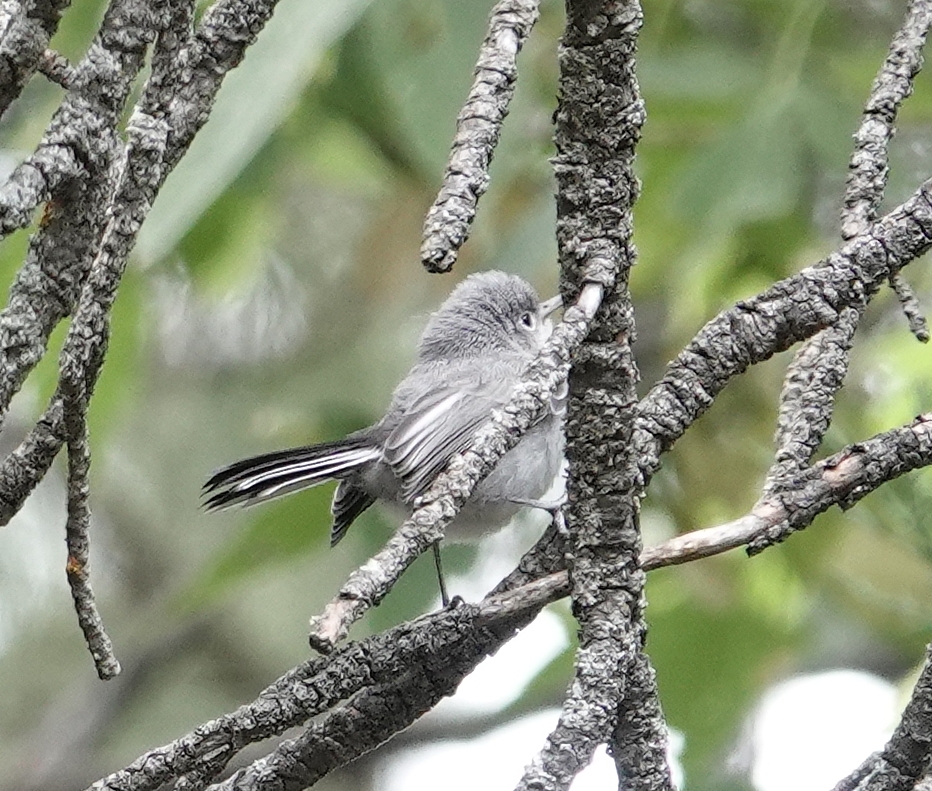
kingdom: Animalia
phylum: Chordata
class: Aves
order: Passeriformes
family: Polioptilidae
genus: Polioptila
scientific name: Polioptila caerulea
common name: Blue-gray gnatcatcher
